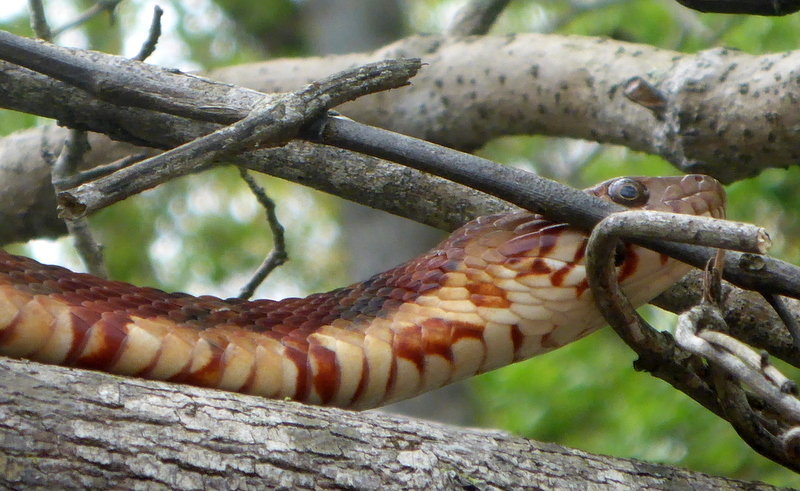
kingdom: Animalia
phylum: Chordata
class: Squamata
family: Colubridae
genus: Nerodia
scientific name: Nerodia fasciata
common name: Southern water snake
